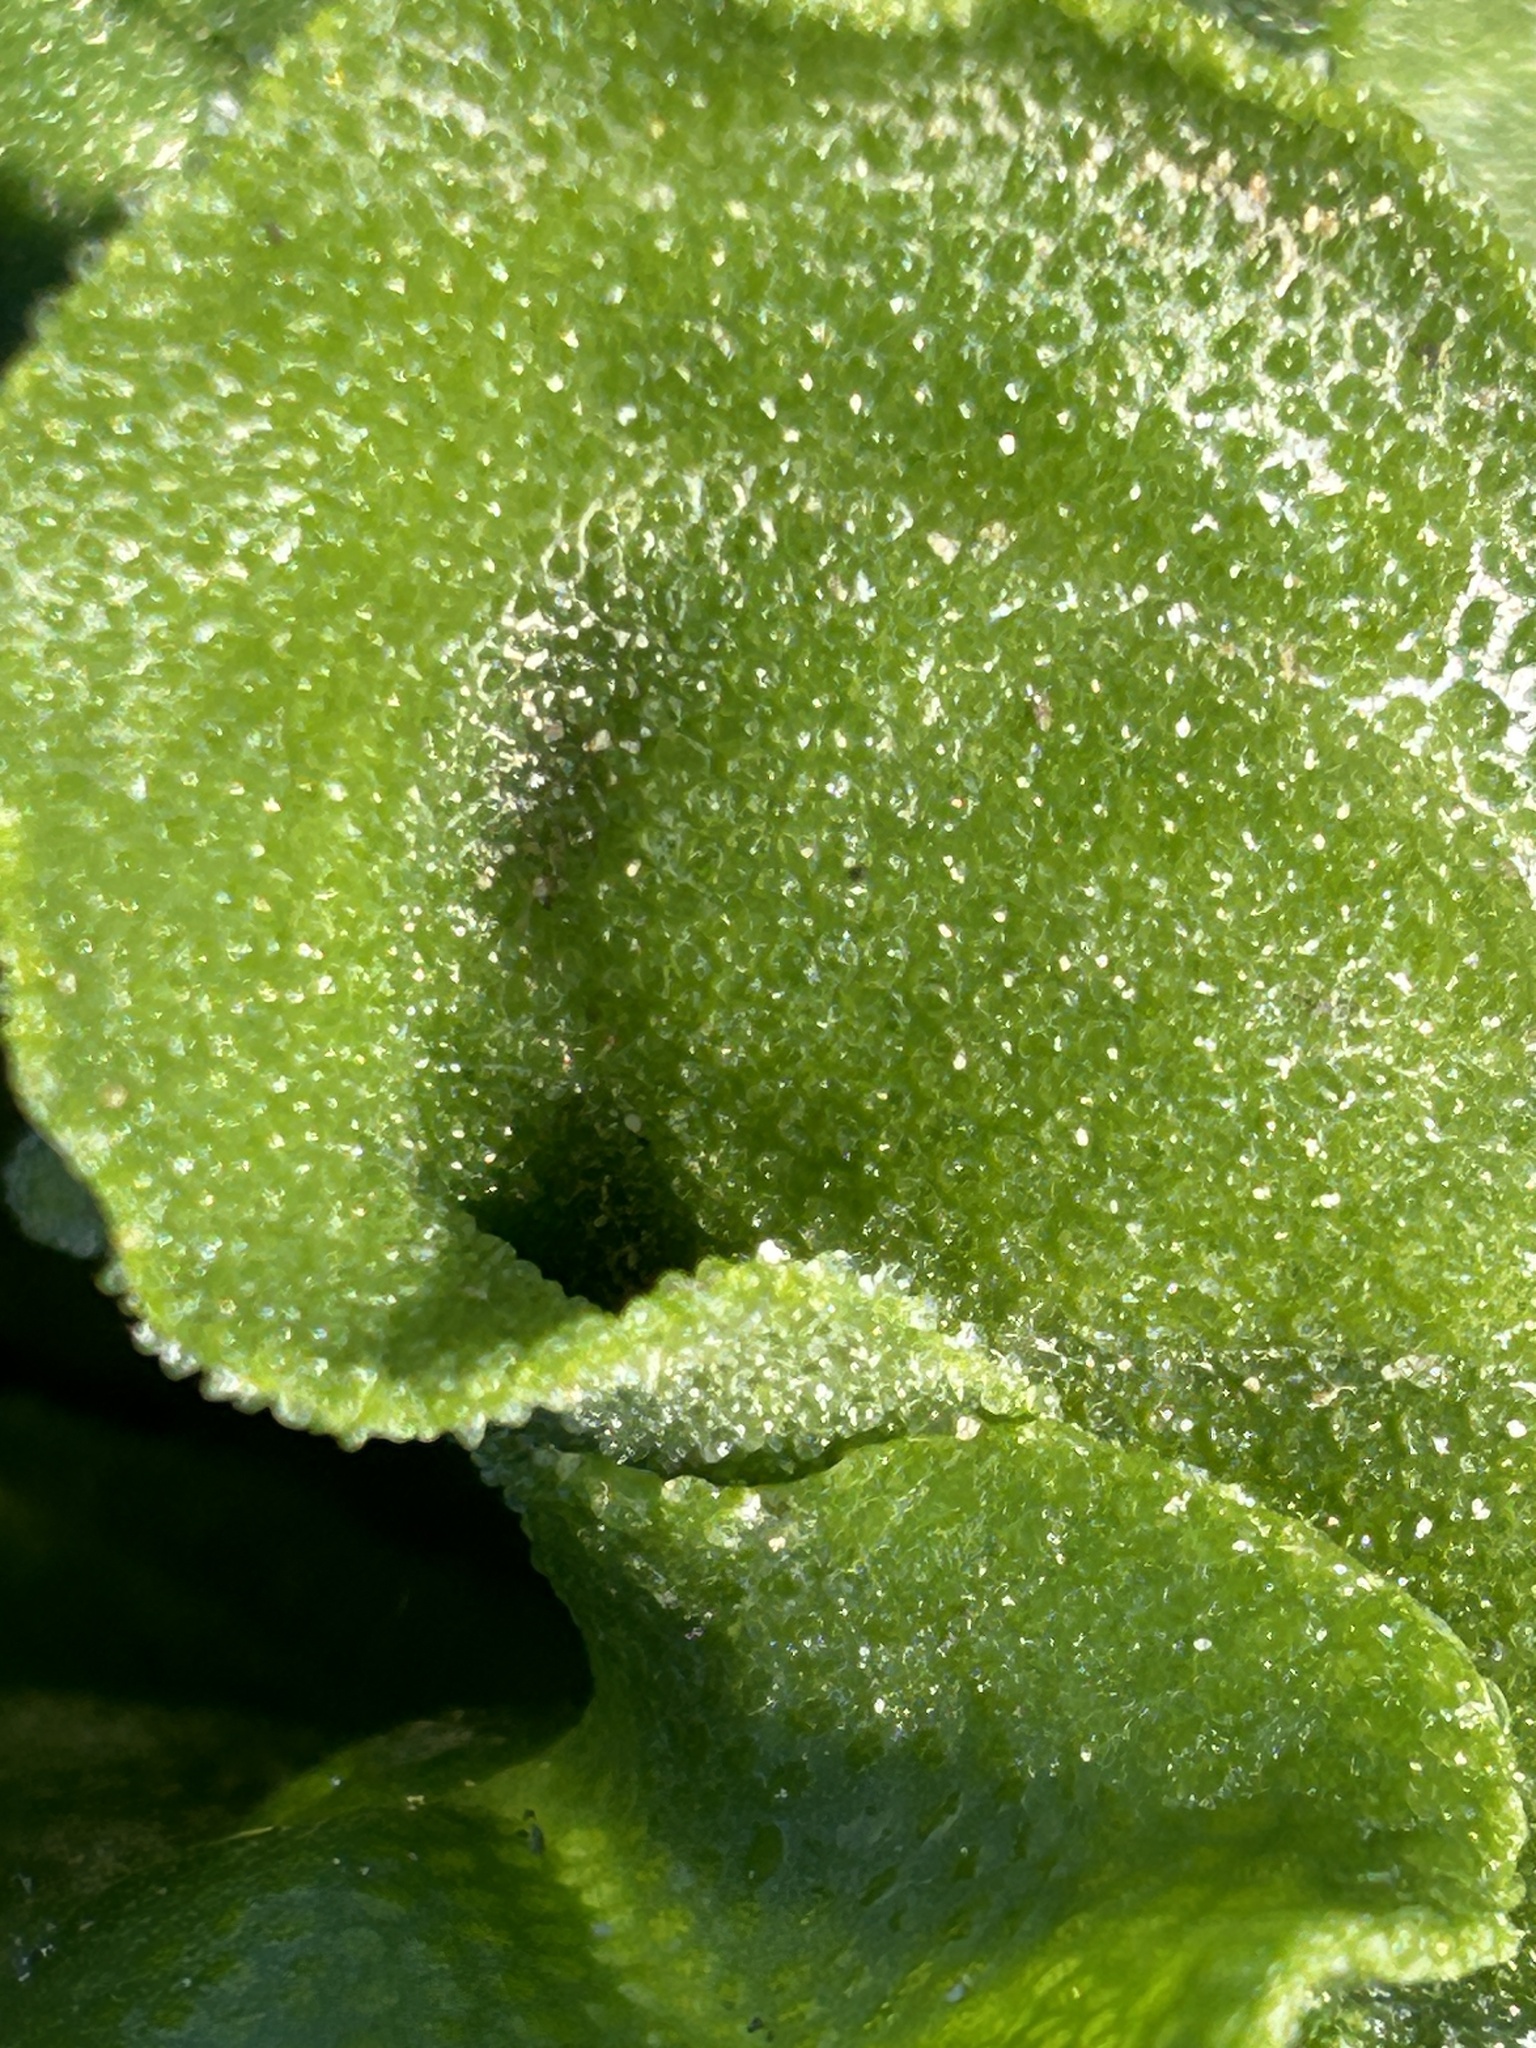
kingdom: Plantae
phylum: Tracheophyta
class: Magnoliopsida
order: Caryophyllales
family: Aizoaceae
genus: Mesembryanthemum
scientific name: Mesembryanthemum crystallinum
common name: Common iceplant
